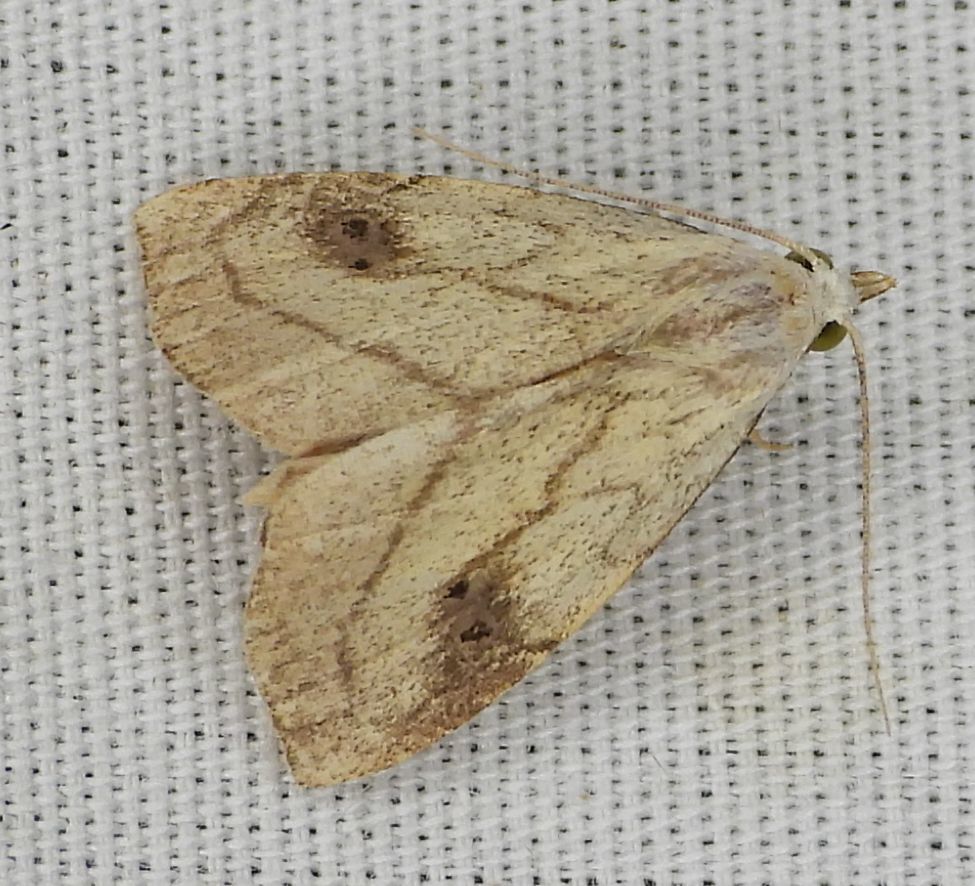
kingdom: Animalia
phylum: Arthropoda
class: Insecta
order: Lepidoptera
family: Erebidae
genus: Rivula
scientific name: Rivula propinqualis
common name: Spotted grass moth
